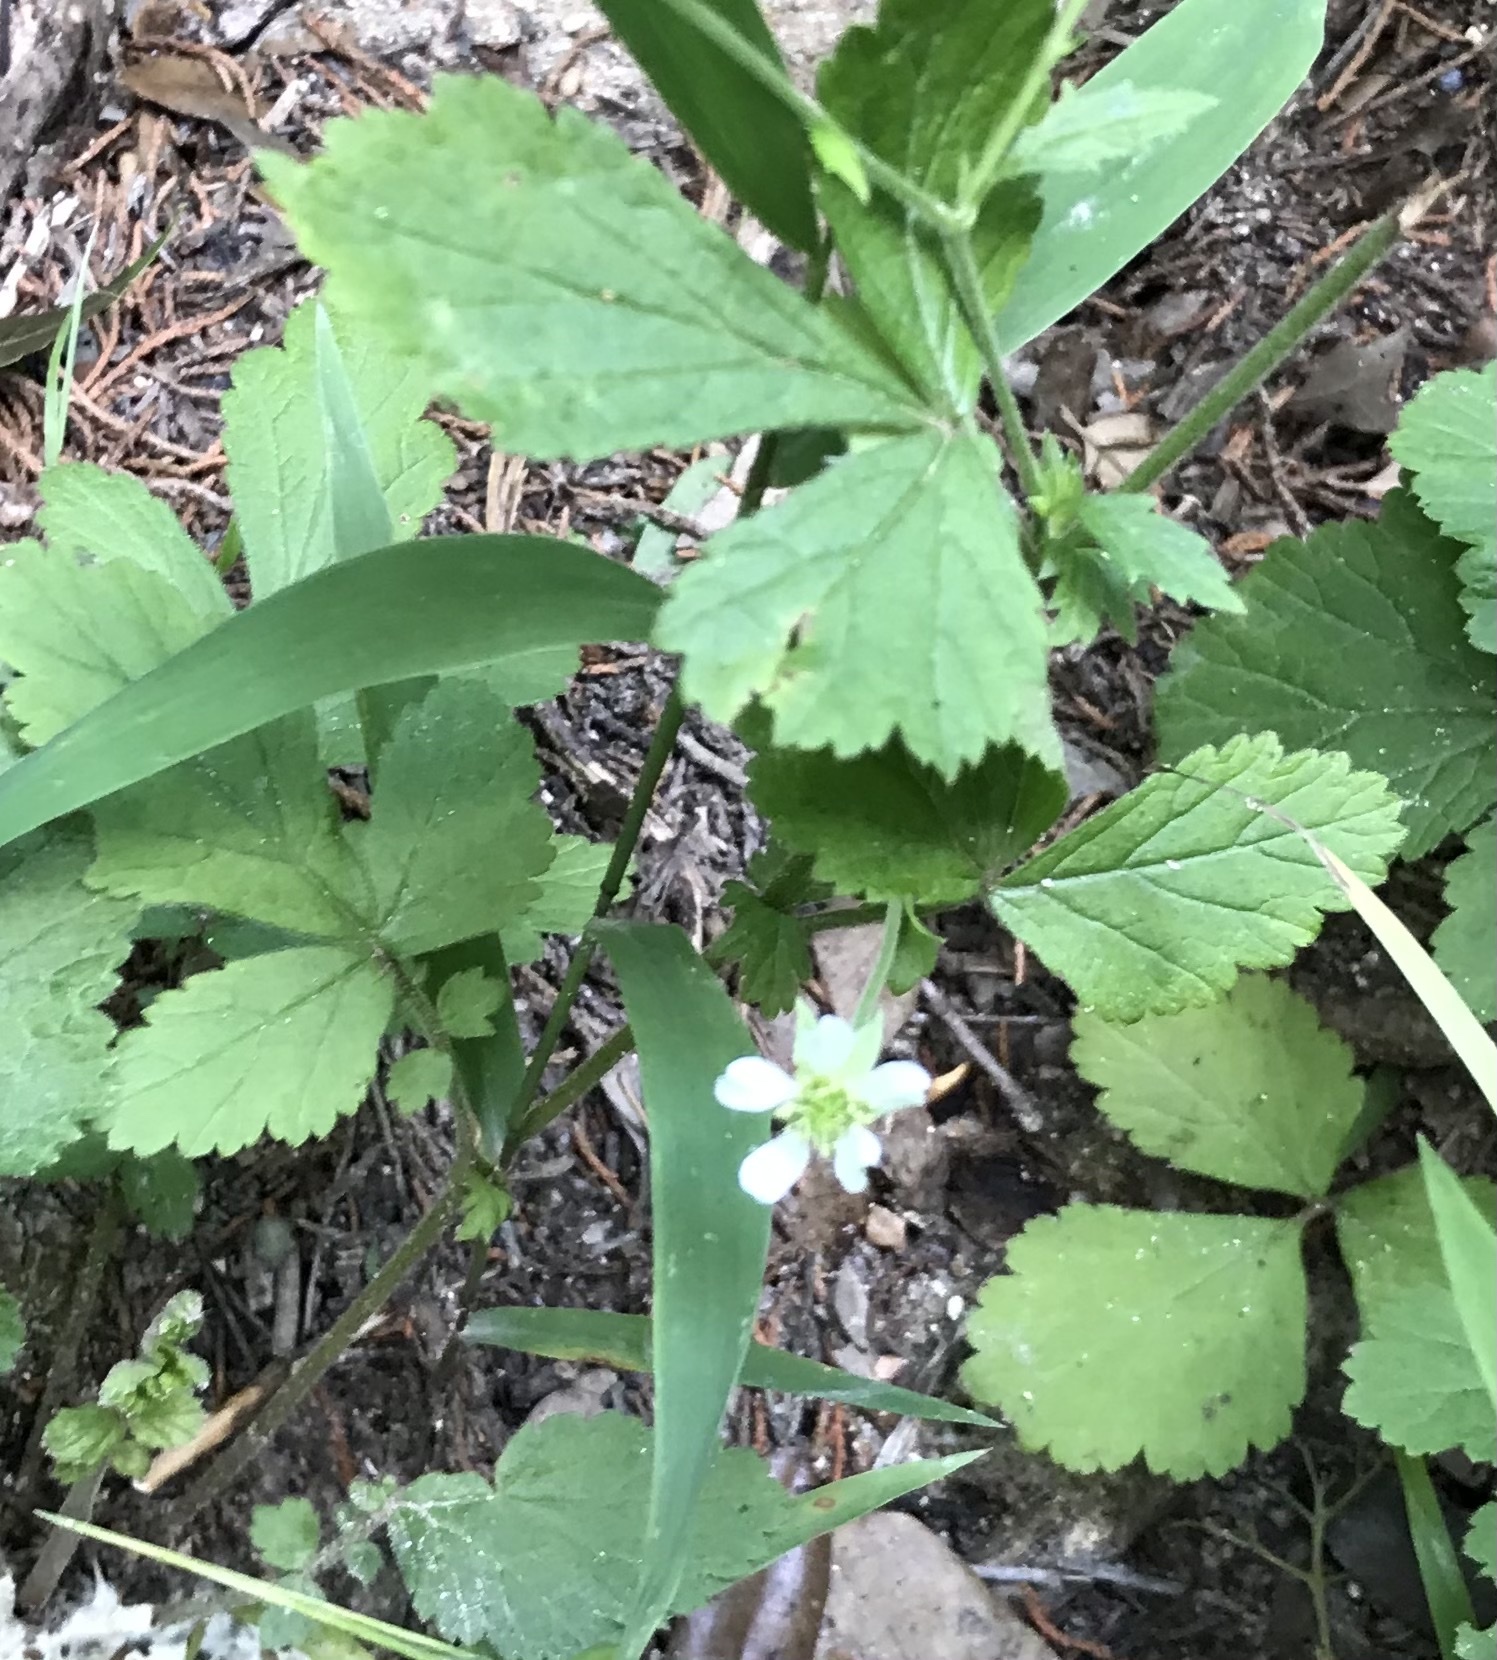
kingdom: Plantae
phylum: Tracheophyta
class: Magnoliopsida
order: Rosales
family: Rosaceae
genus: Geum
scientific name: Geum canadense
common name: White avens
